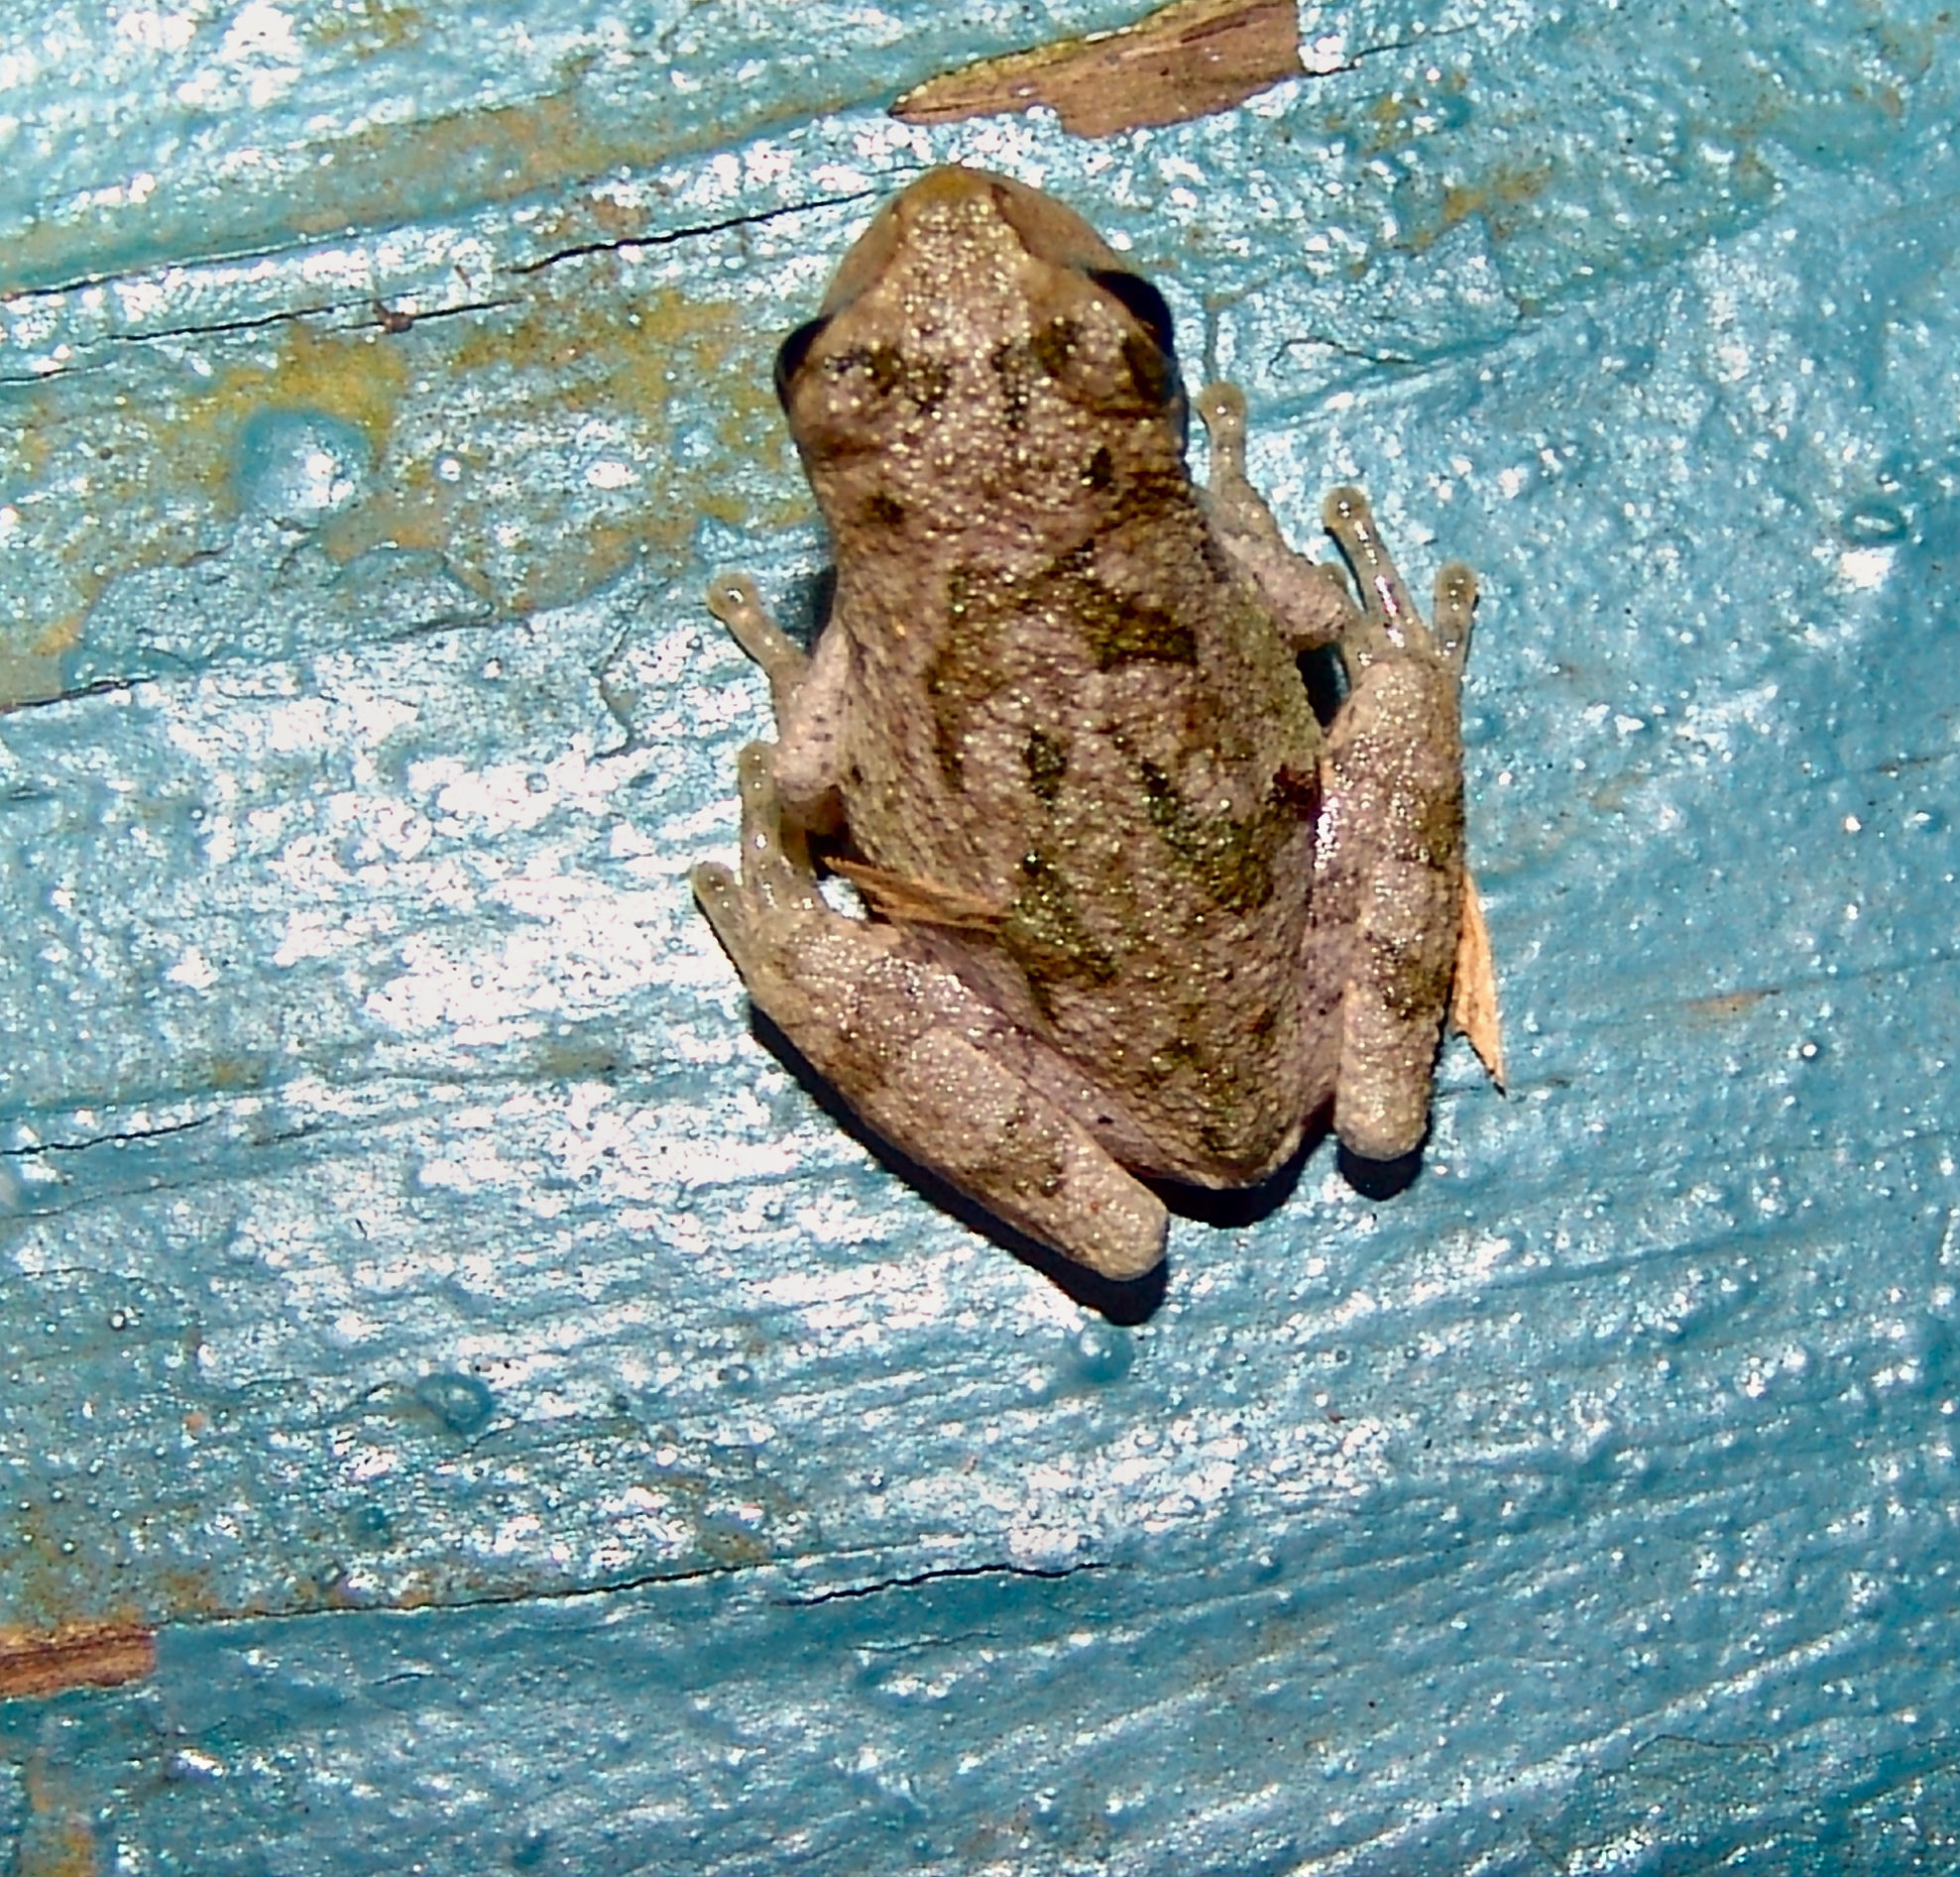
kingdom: Animalia
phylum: Chordata
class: Amphibia
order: Anura
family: Hylidae
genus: Dryophytes
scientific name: Dryophytes chrysoscelis
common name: Cope's gray treefrog
